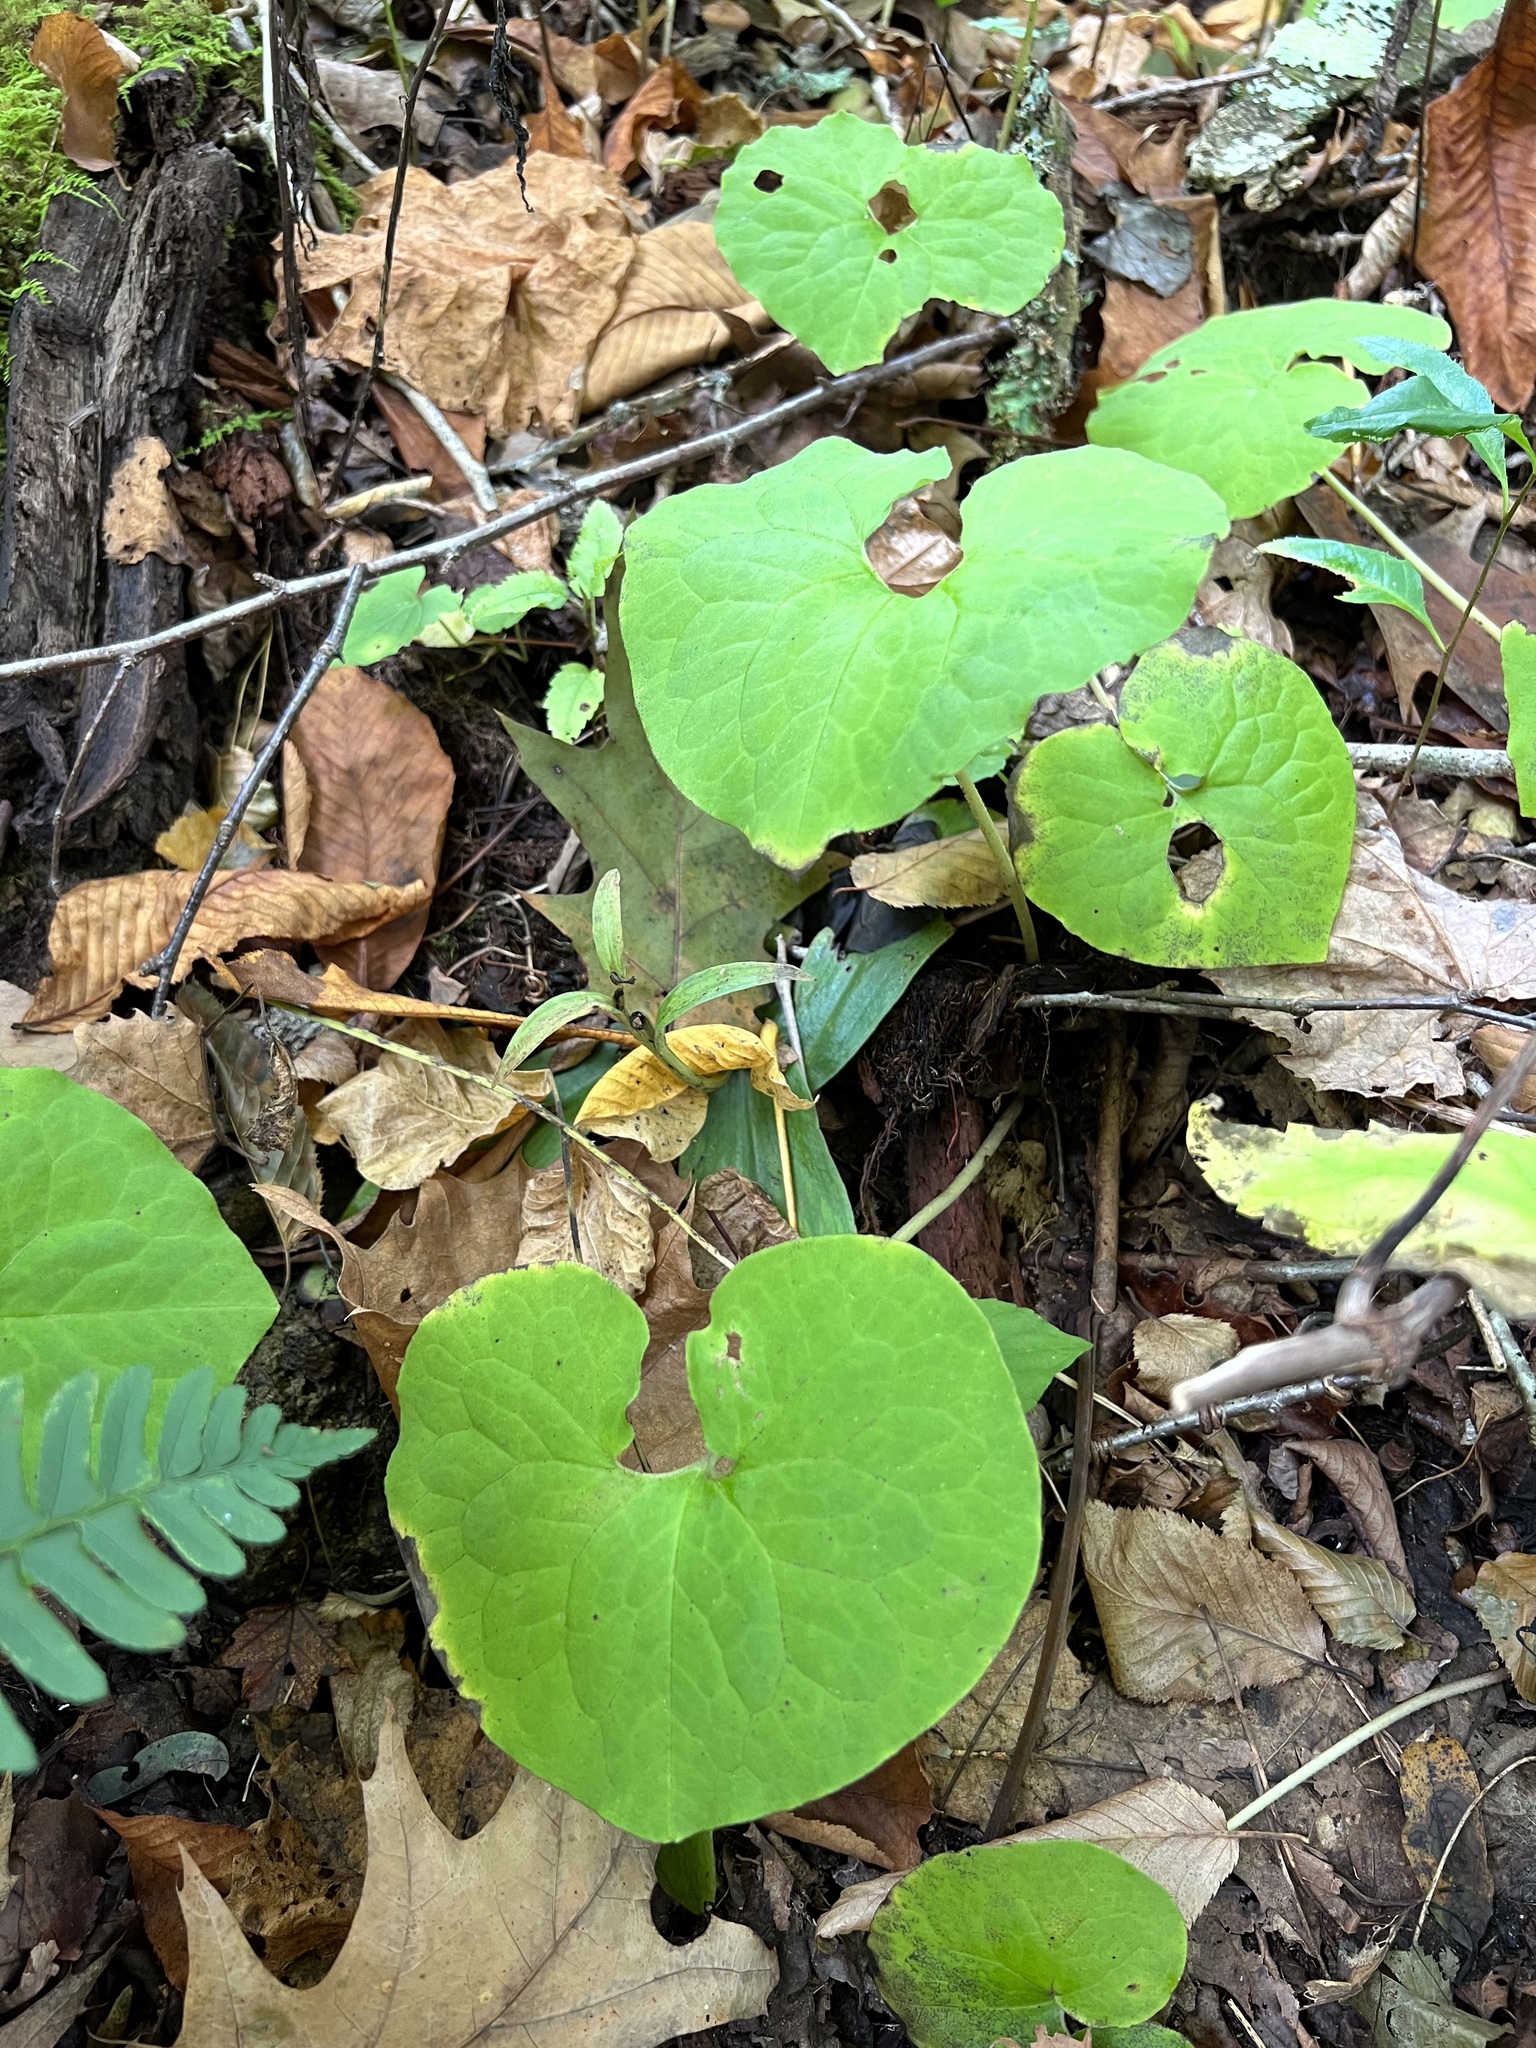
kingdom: Plantae
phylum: Tracheophyta
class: Magnoliopsida
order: Piperales
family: Aristolochiaceae
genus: Asarum
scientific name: Asarum canadense
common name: Wild ginger
